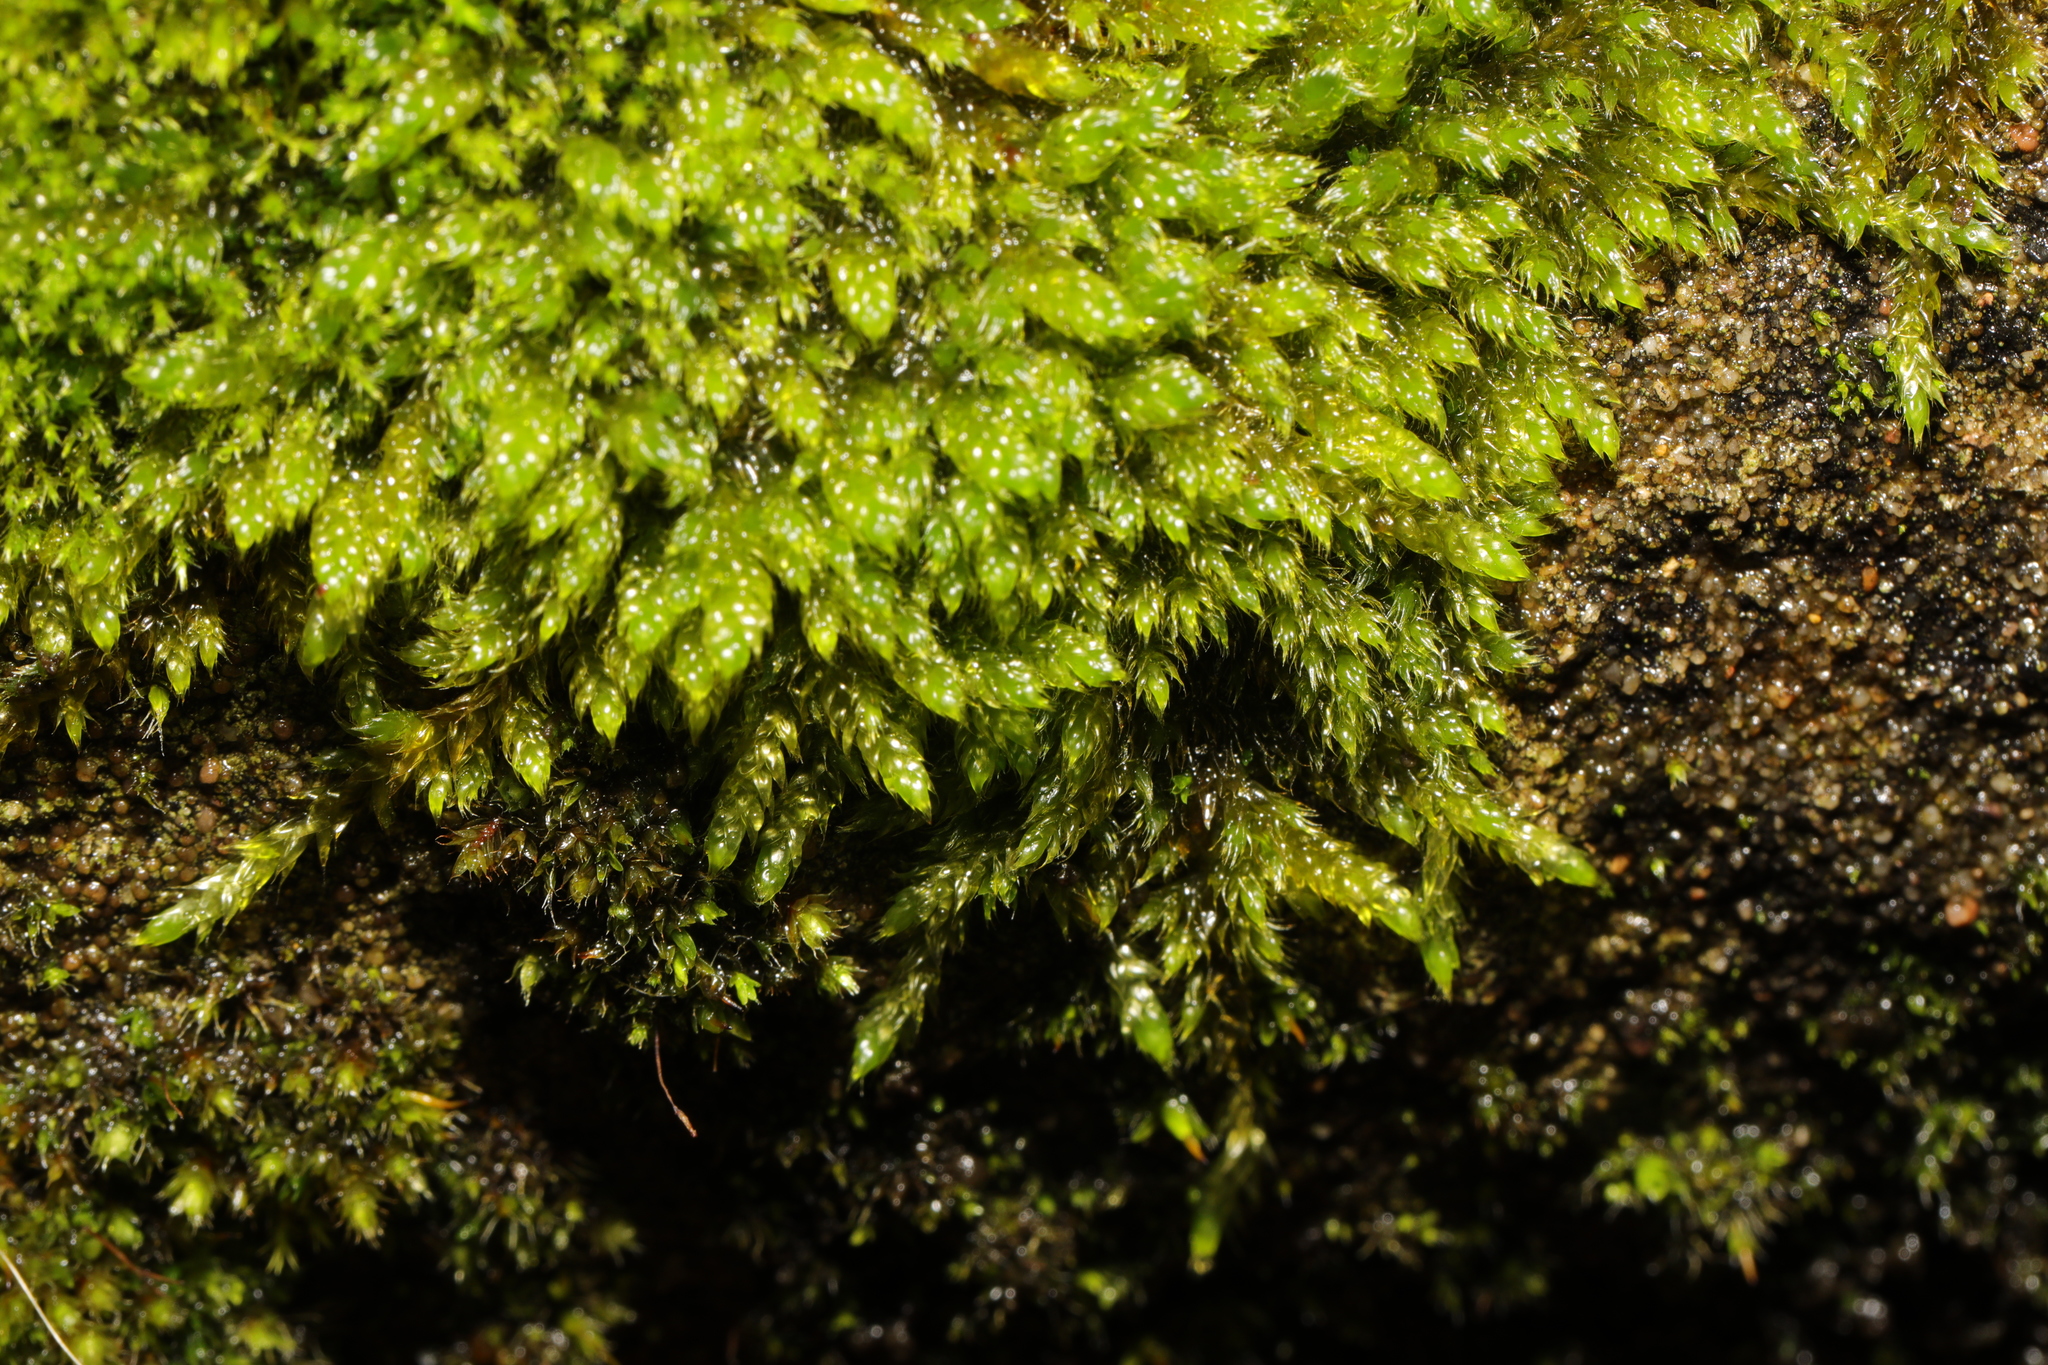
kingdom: Plantae
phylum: Bryophyta
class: Bryopsida
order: Hypnales
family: Hypnaceae
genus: Hypnum
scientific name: Hypnum cupressiforme
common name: Cypress-leaved plait-moss
